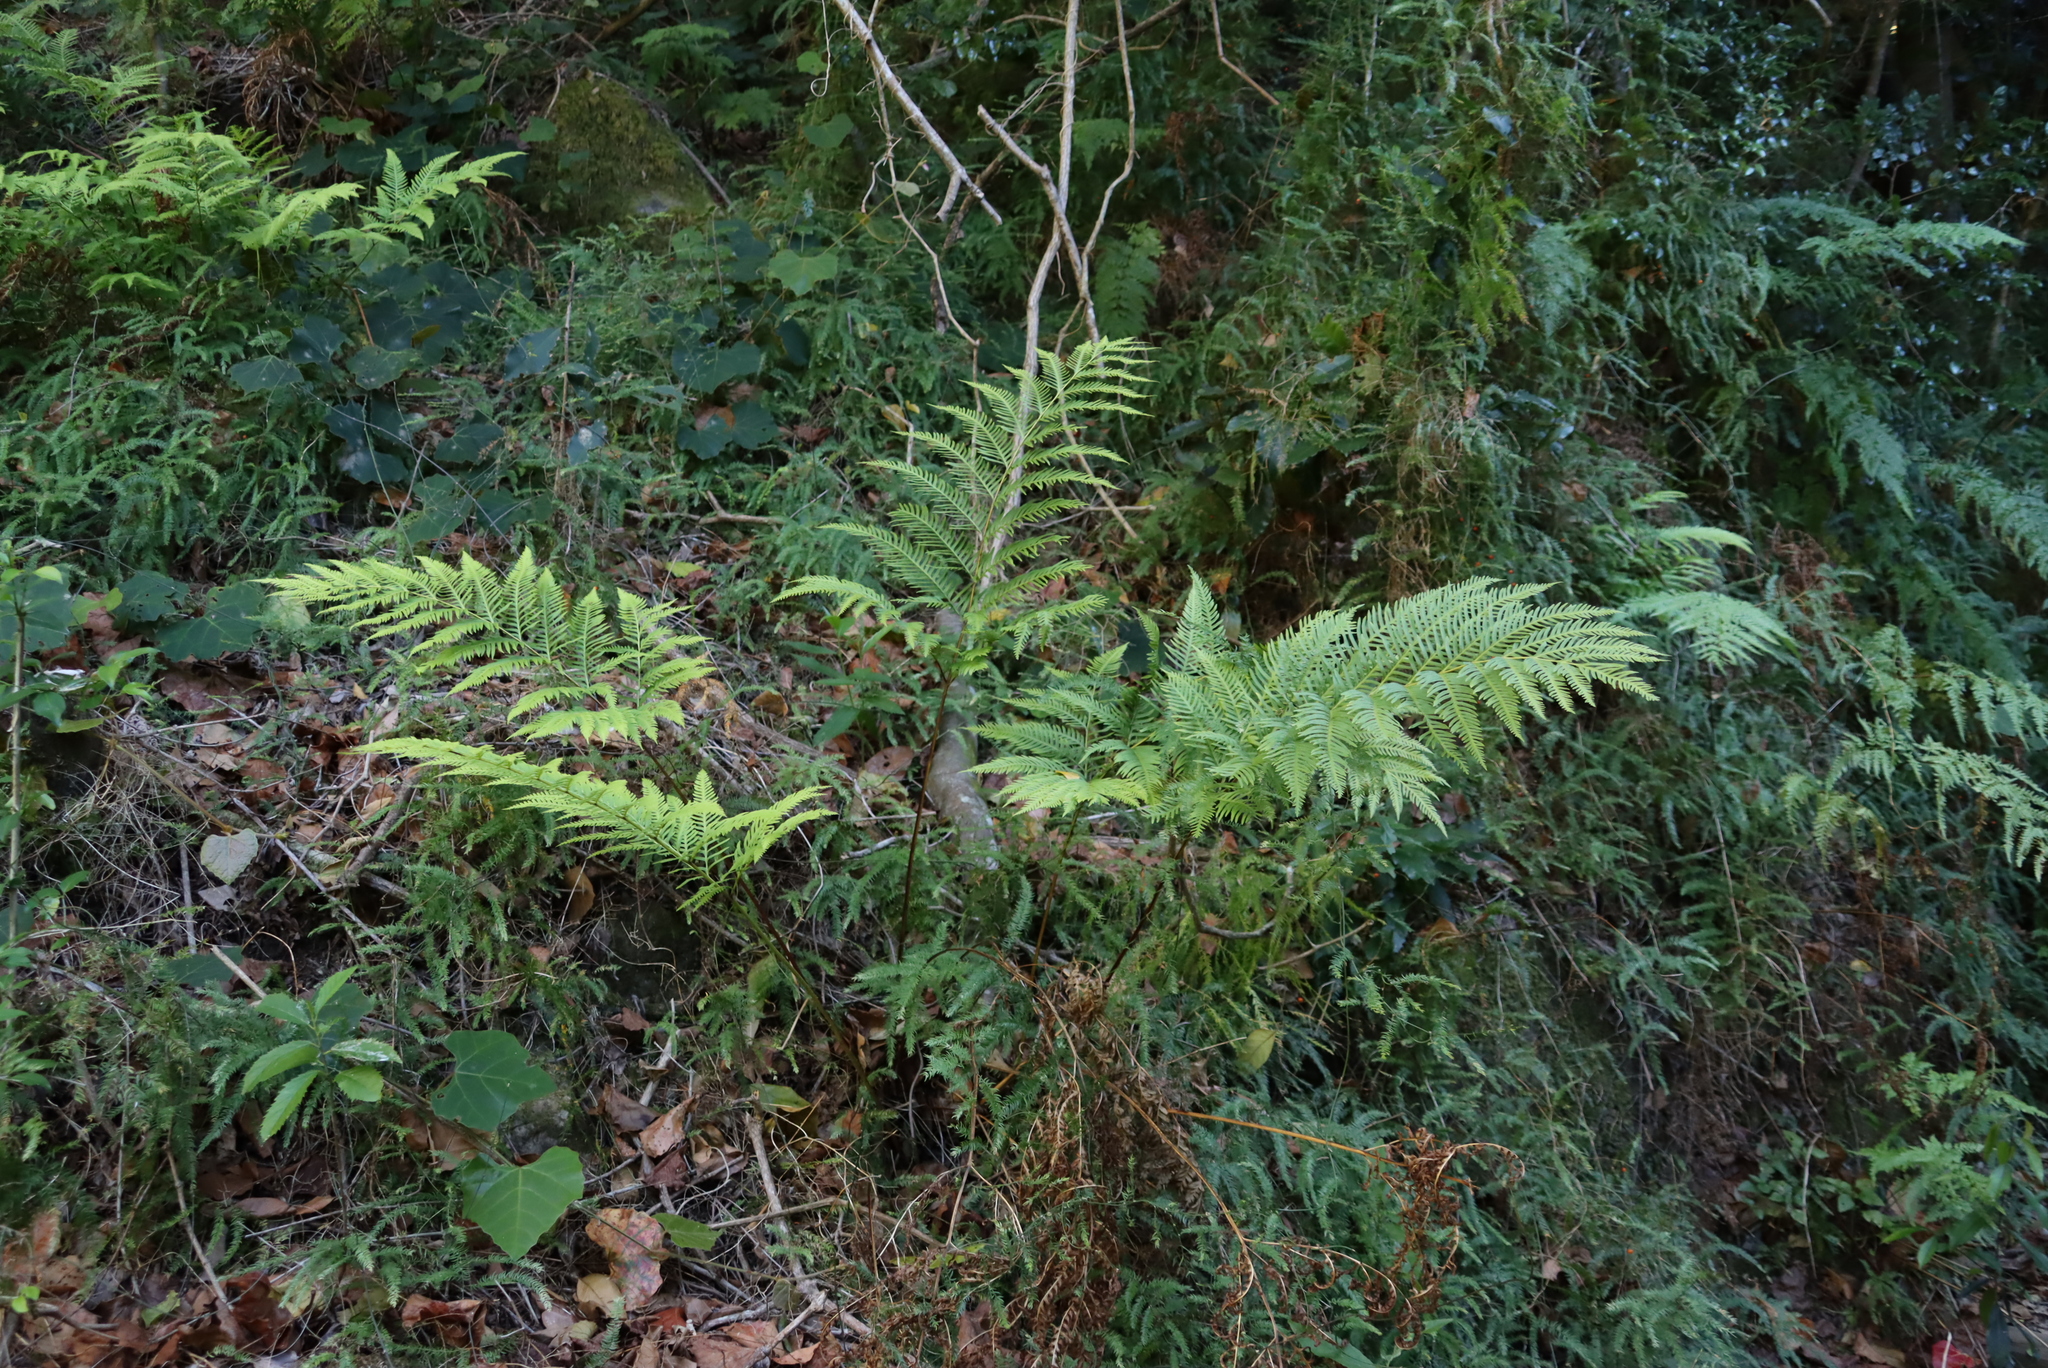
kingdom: Plantae
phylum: Tracheophyta
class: Polypodiopsida
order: Polypodiales
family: Pteridaceae
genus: Pteris
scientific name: Pteris dentata
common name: Toothed brake
